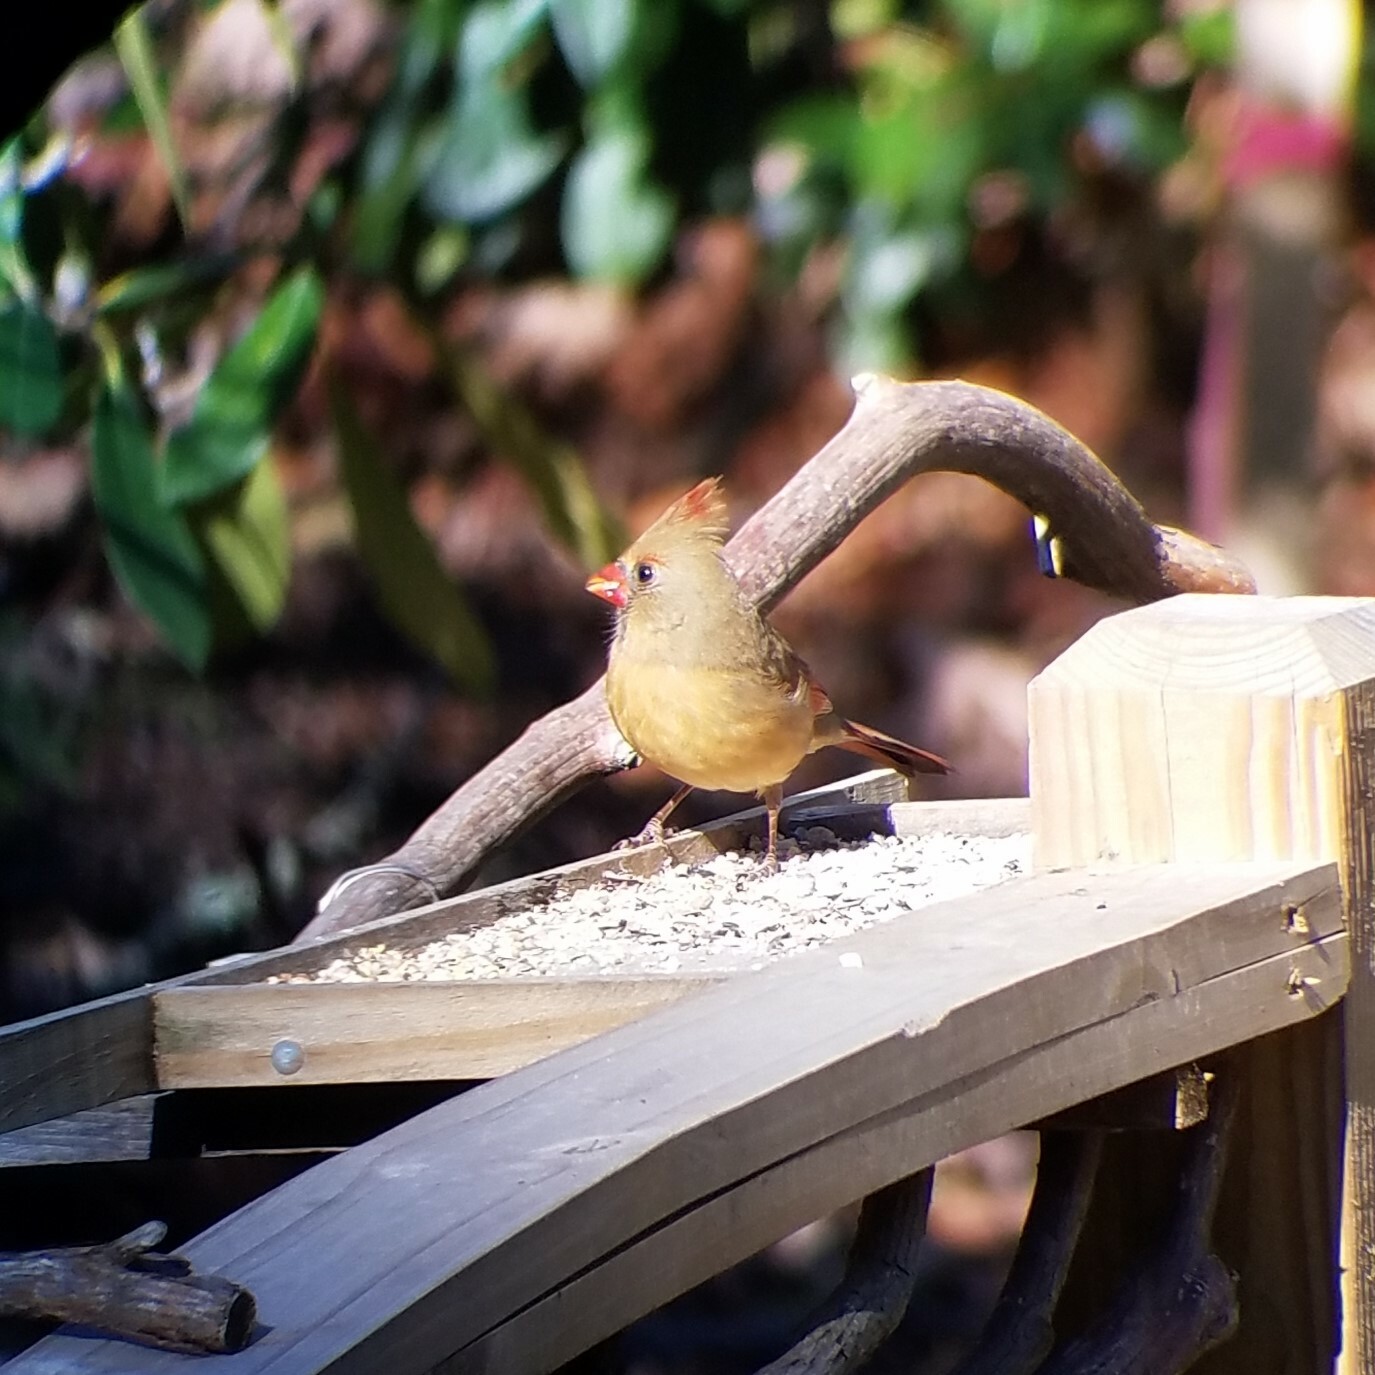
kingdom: Animalia
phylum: Chordata
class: Aves
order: Passeriformes
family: Cardinalidae
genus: Cardinalis
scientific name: Cardinalis cardinalis
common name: Northern cardinal
